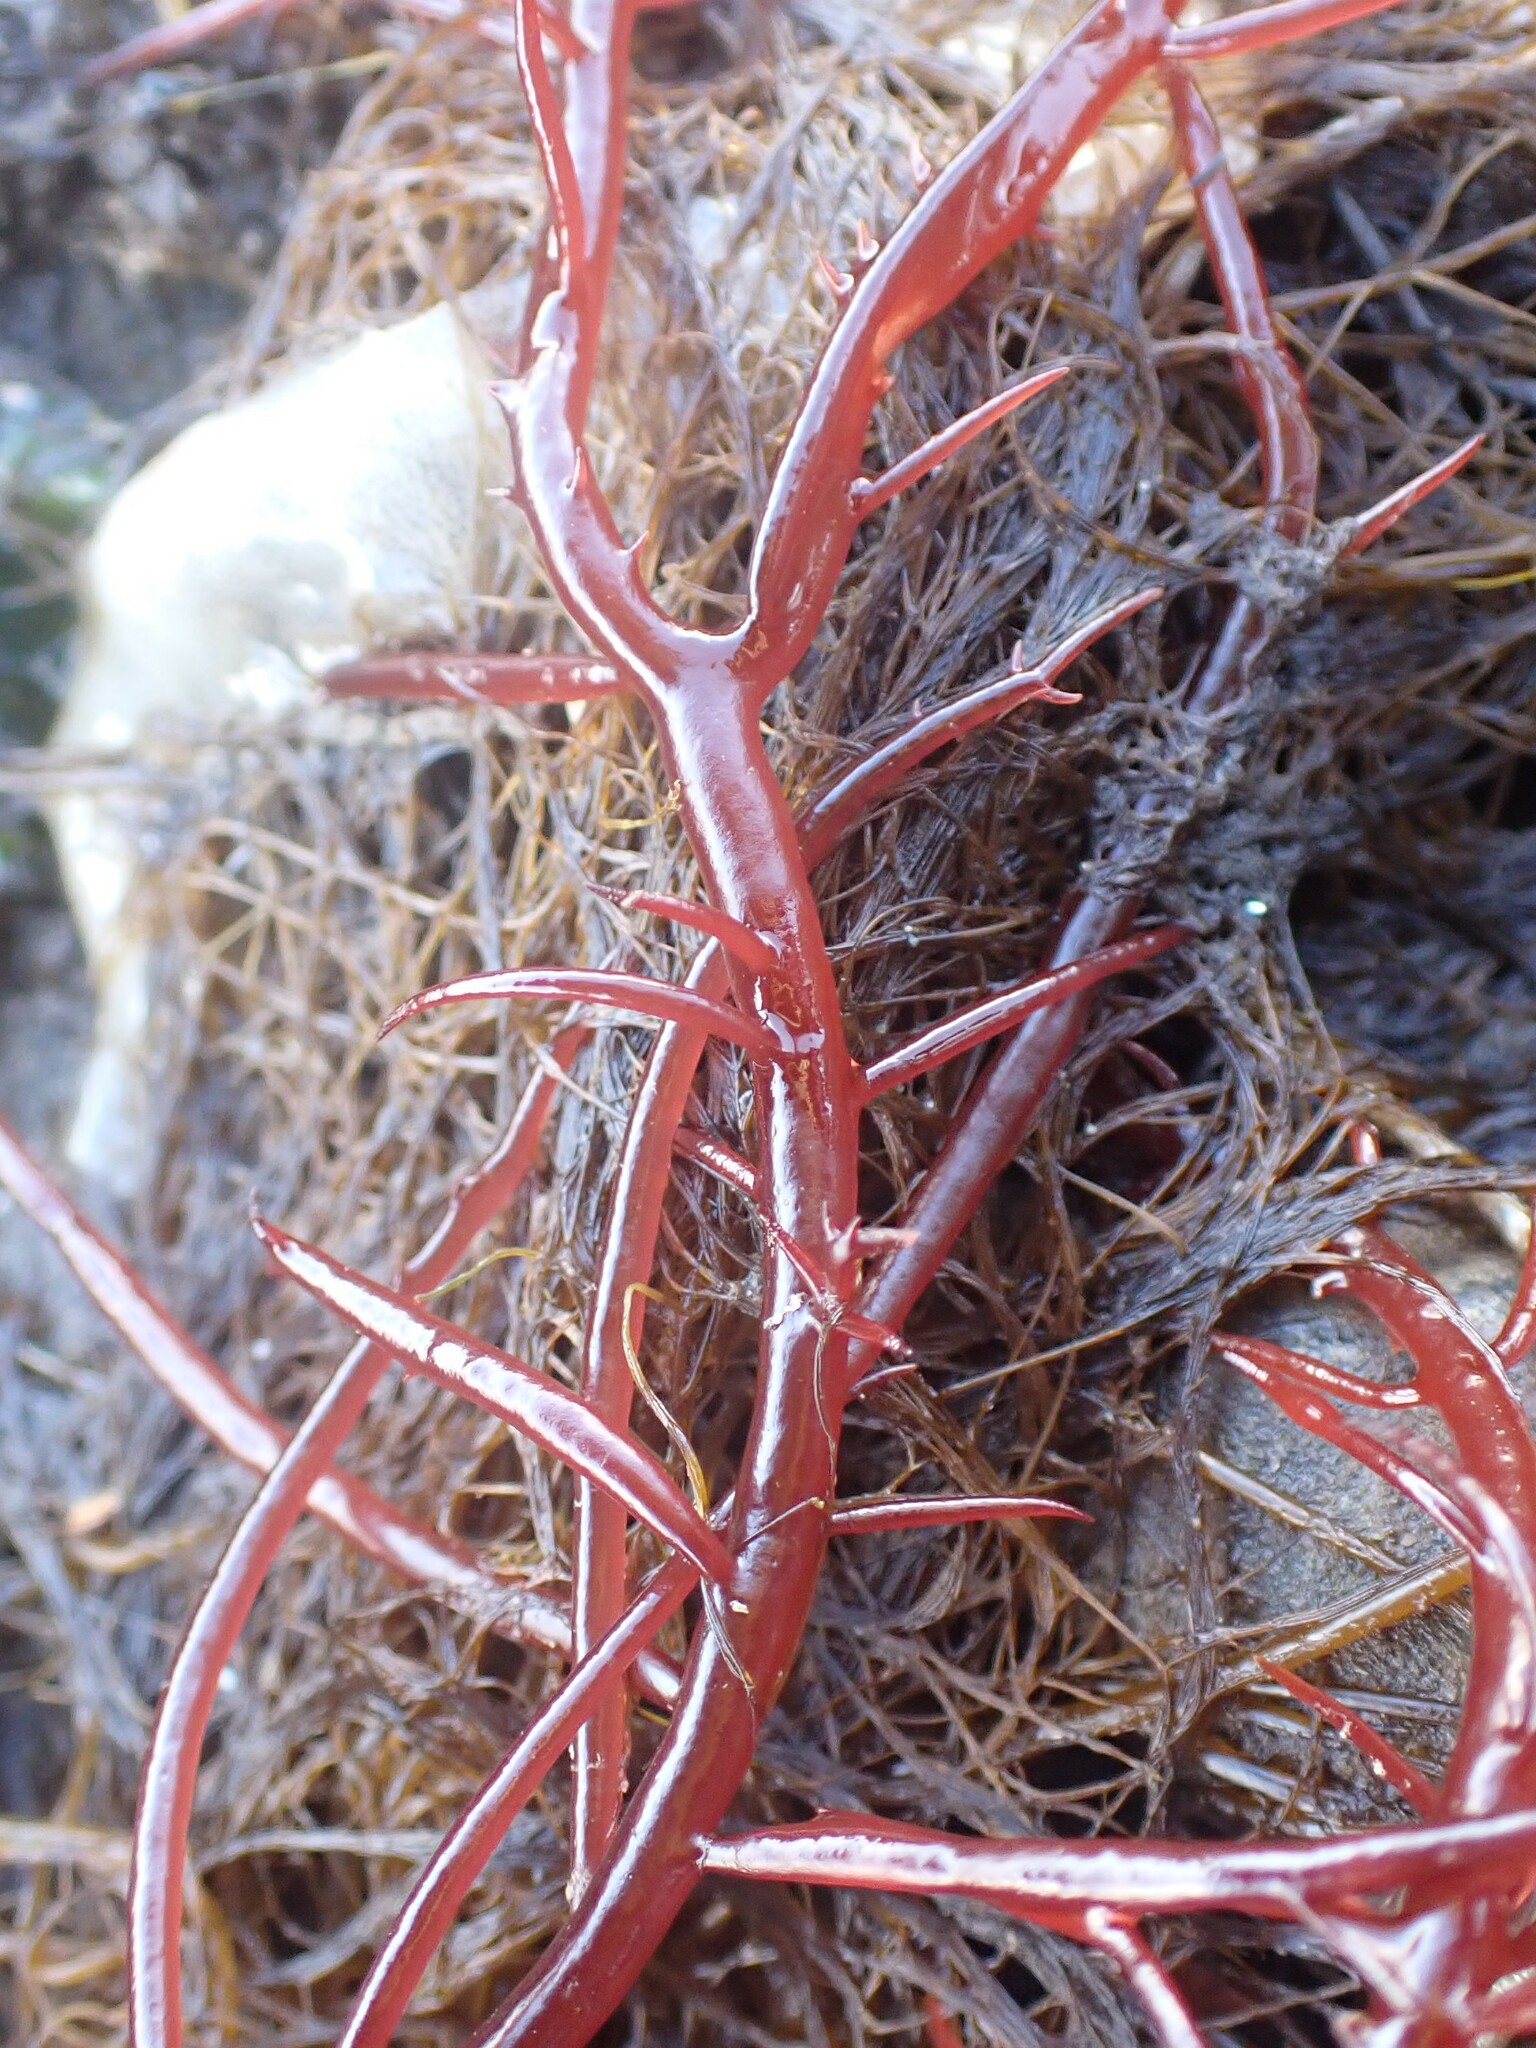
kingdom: Plantae
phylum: Rhodophyta
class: Florideophyceae
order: Gigartinales
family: Solieriaceae
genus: Sarcodiotheca
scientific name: Sarcodiotheca gaudichaudii
